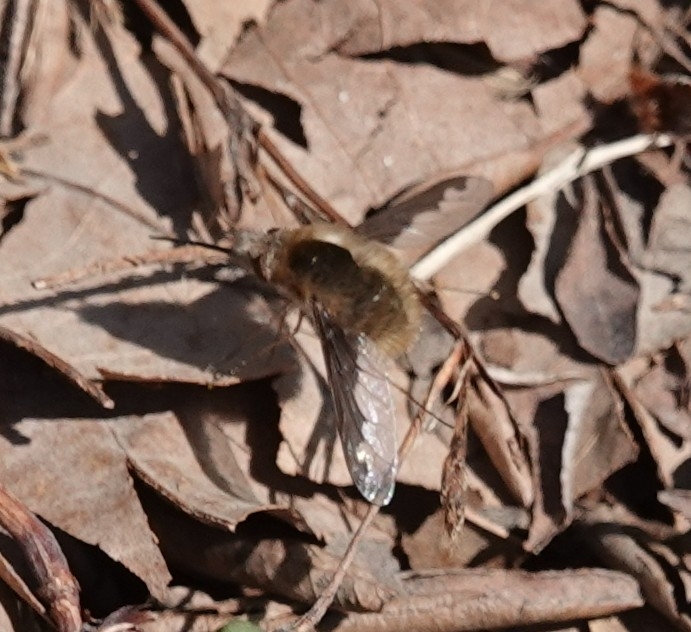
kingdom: Animalia
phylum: Arthropoda
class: Insecta
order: Diptera
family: Bombyliidae
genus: Bombylius
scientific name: Bombylius major
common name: Bee fly
